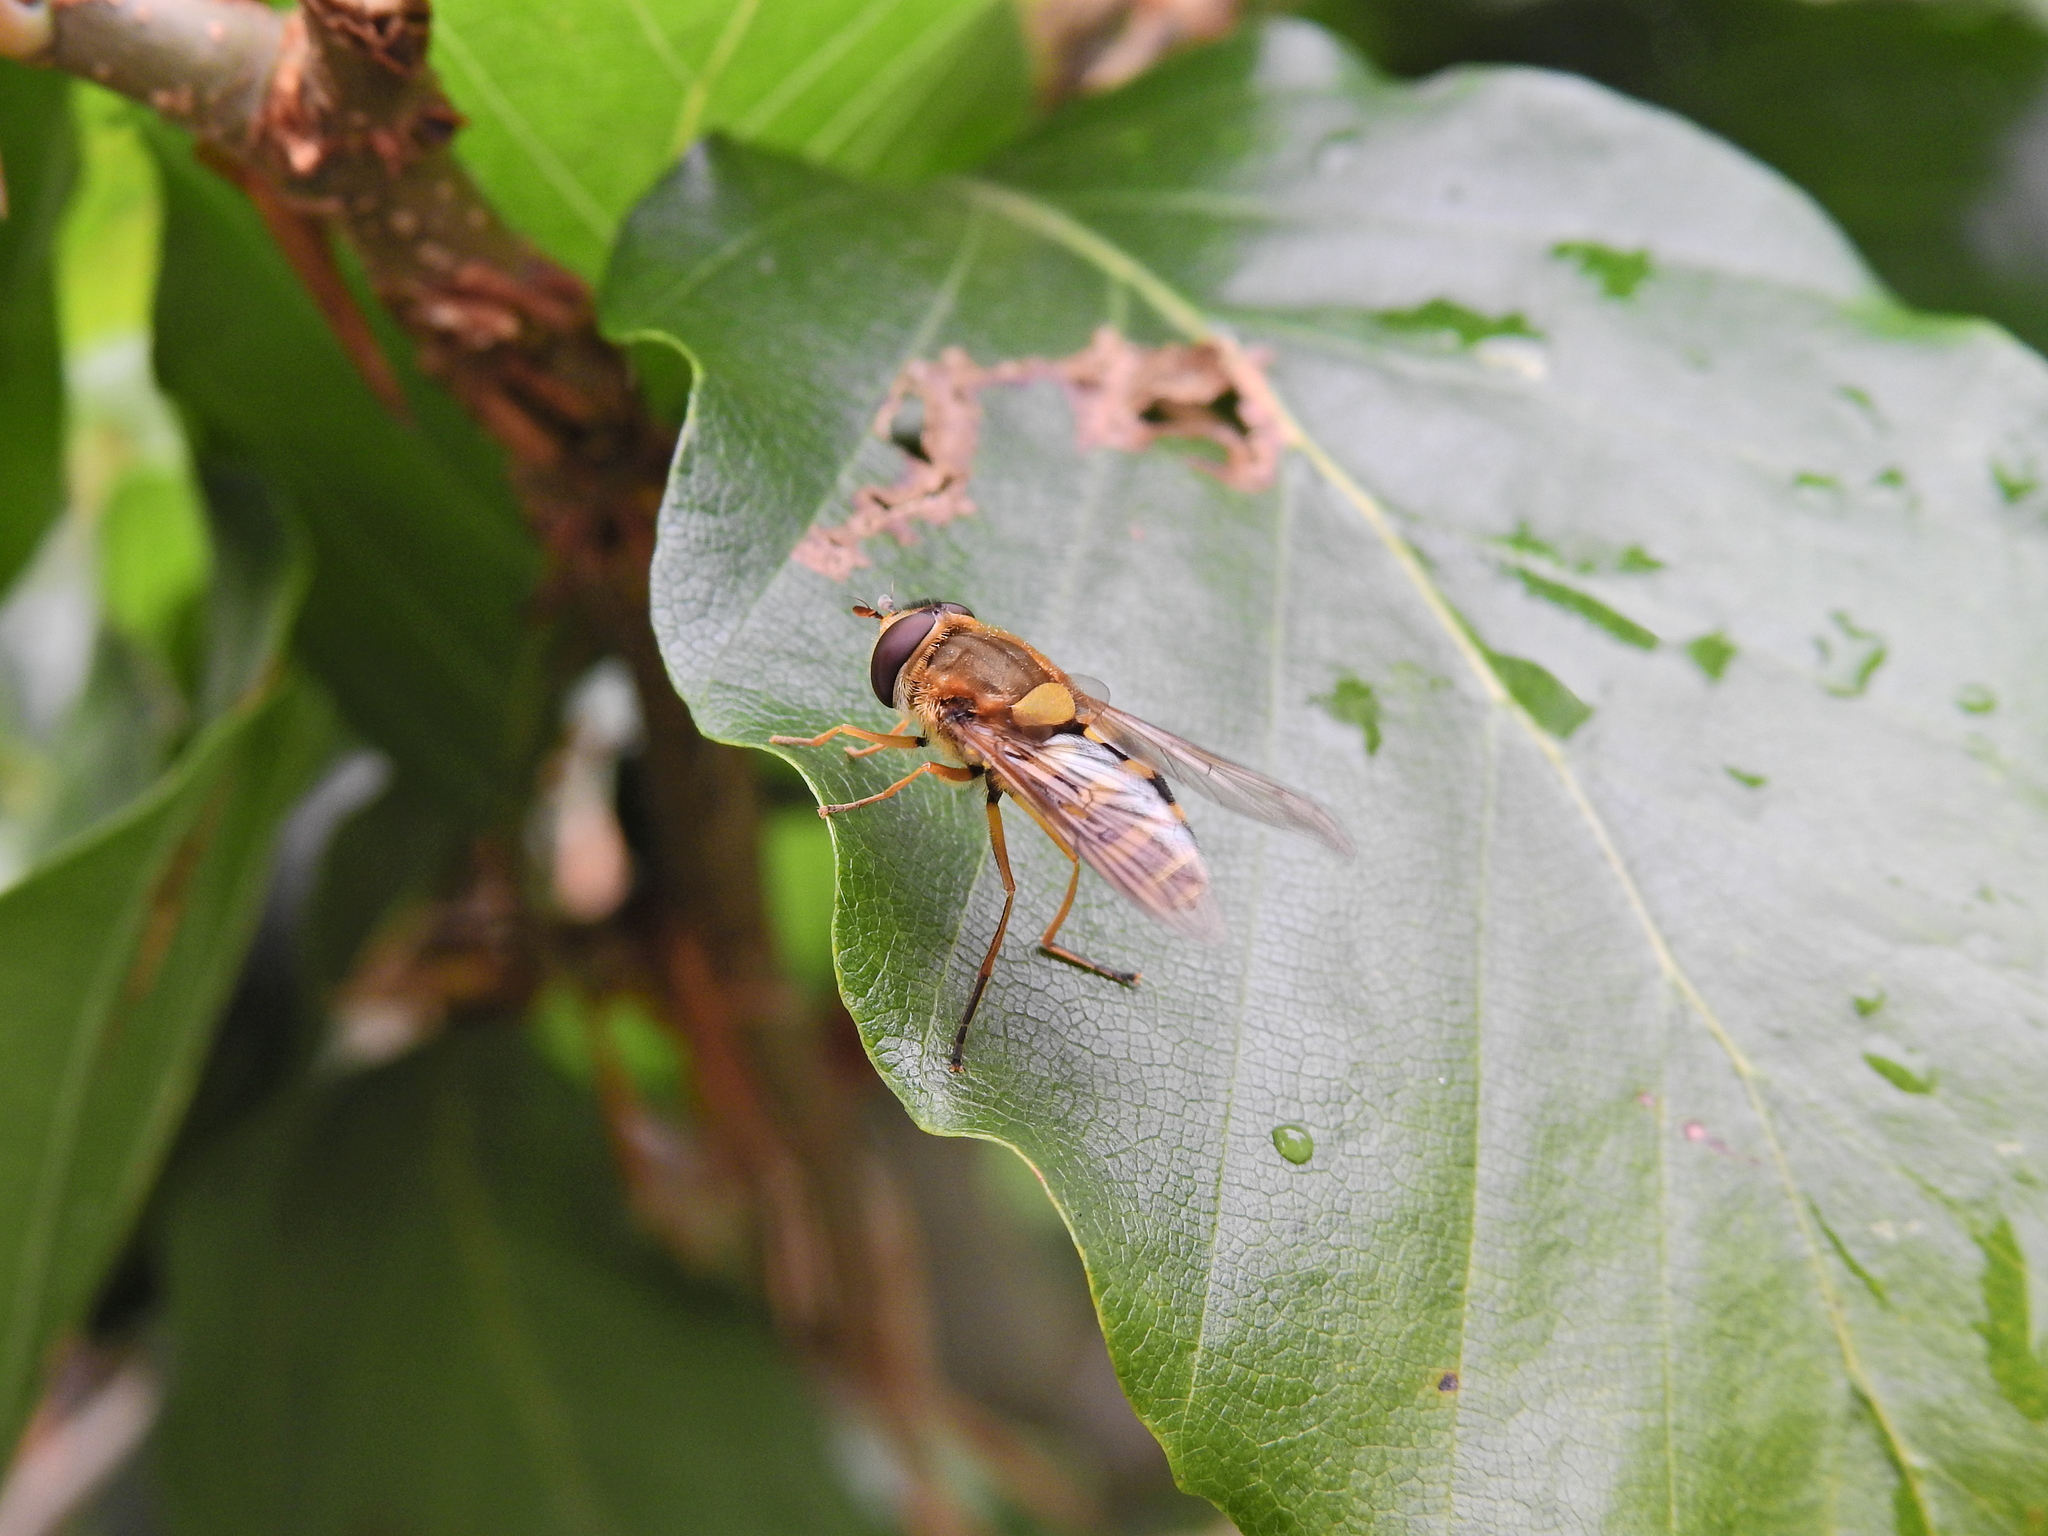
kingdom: Animalia
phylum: Arthropoda
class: Insecta
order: Diptera
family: Syrphidae
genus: Syrphus
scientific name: Syrphus ribesii
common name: Common flower fly
